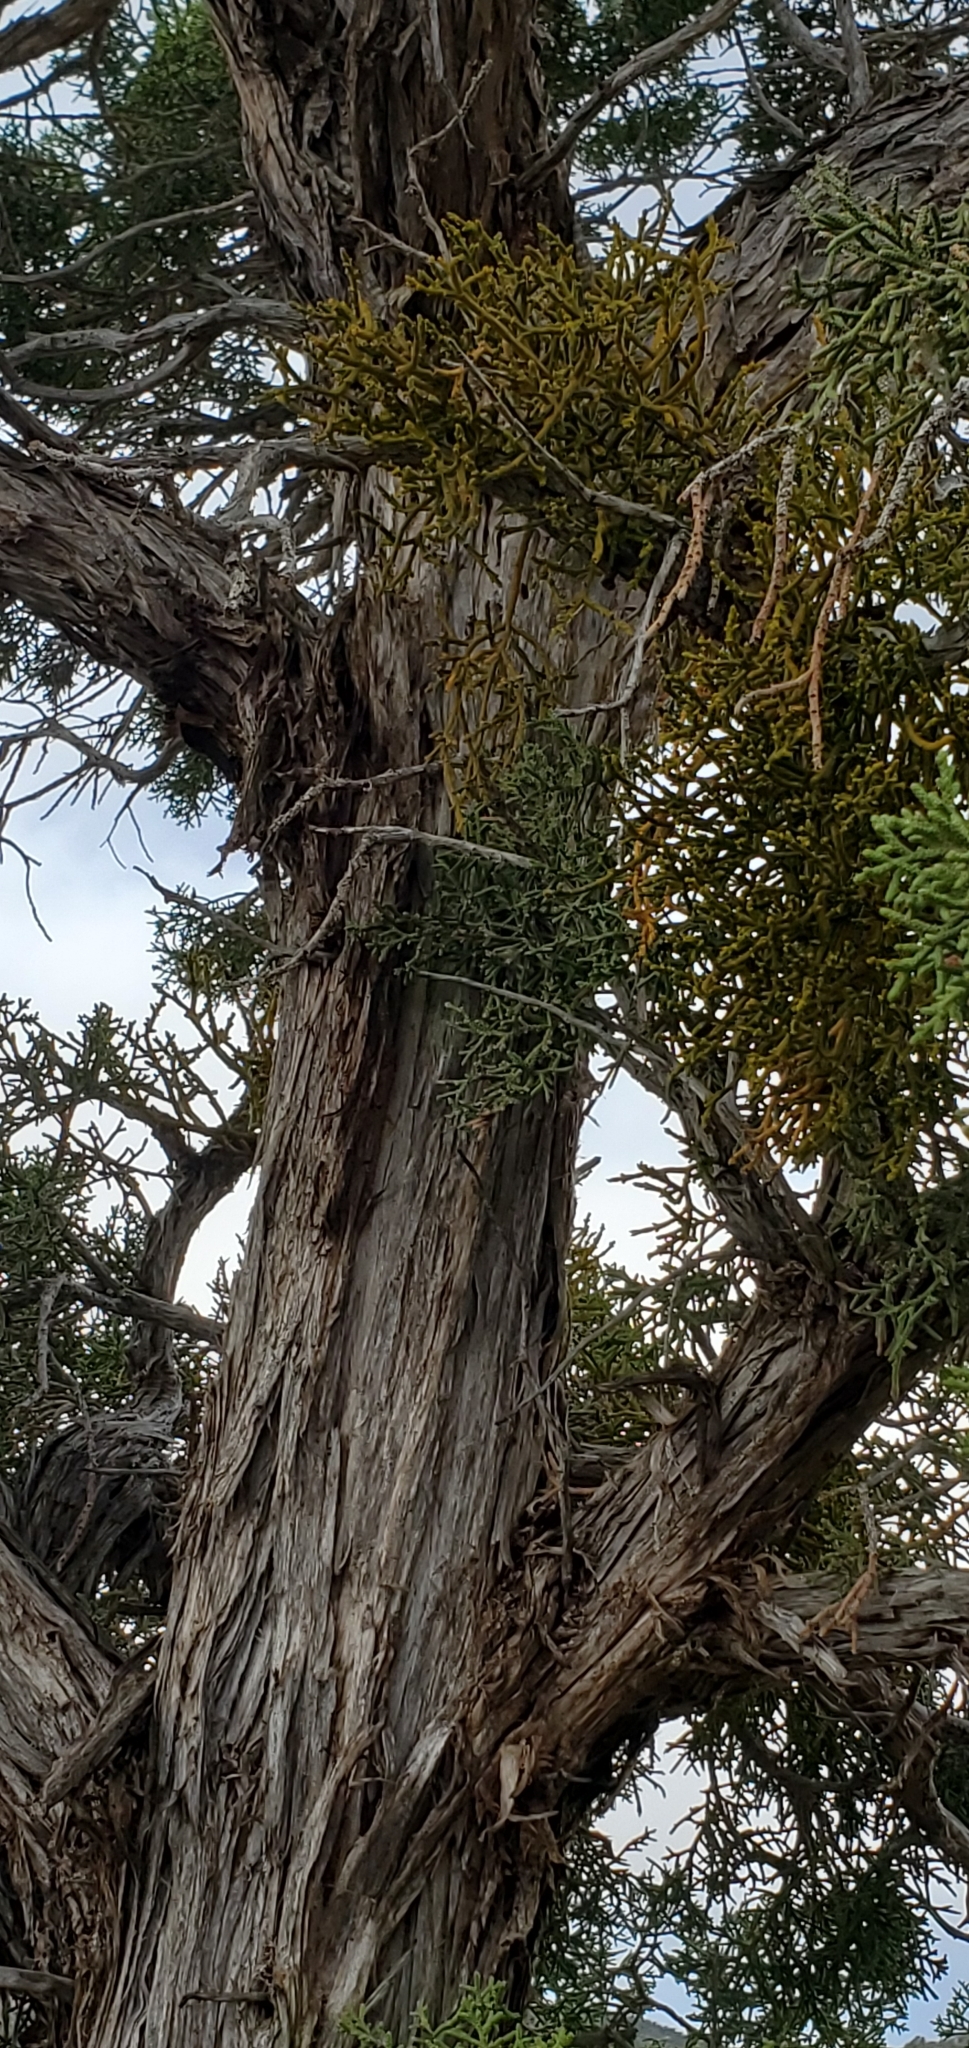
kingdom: Plantae
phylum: Tracheophyta
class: Magnoliopsida
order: Santalales
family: Viscaceae
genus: Phoradendron
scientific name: Phoradendron juniperinum
